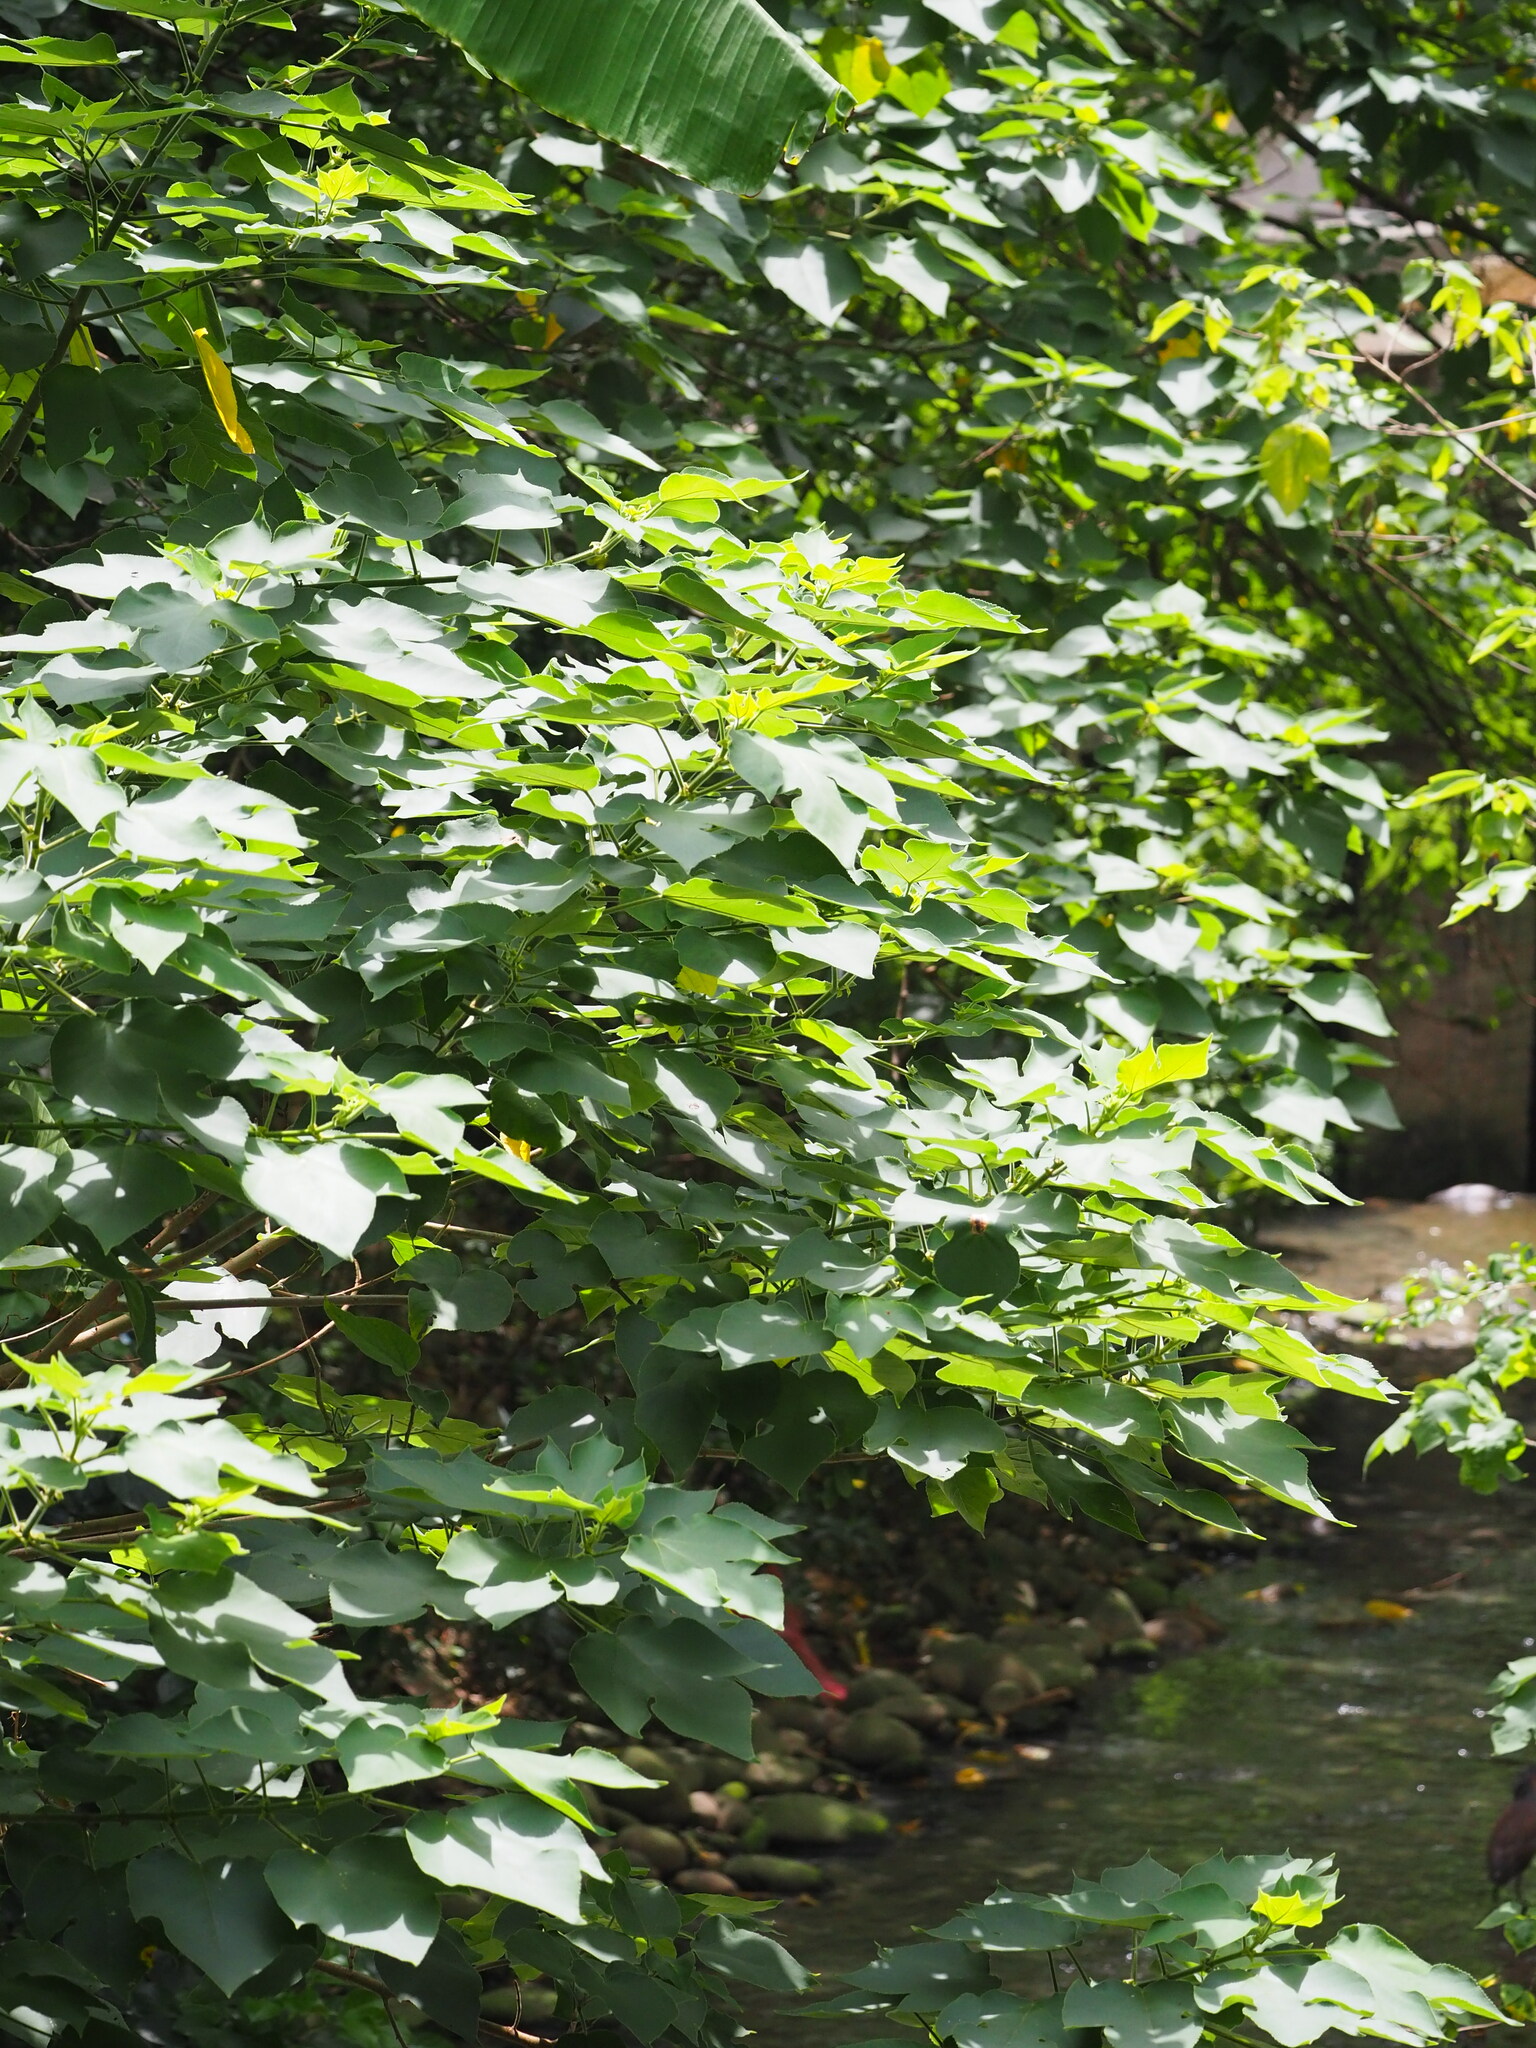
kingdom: Plantae
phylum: Tracheophyta
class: Magnoliopsida
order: Rosales
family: Moraceae
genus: Broussonetia
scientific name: Broussonetia papyrifera
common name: Paper mulberry
